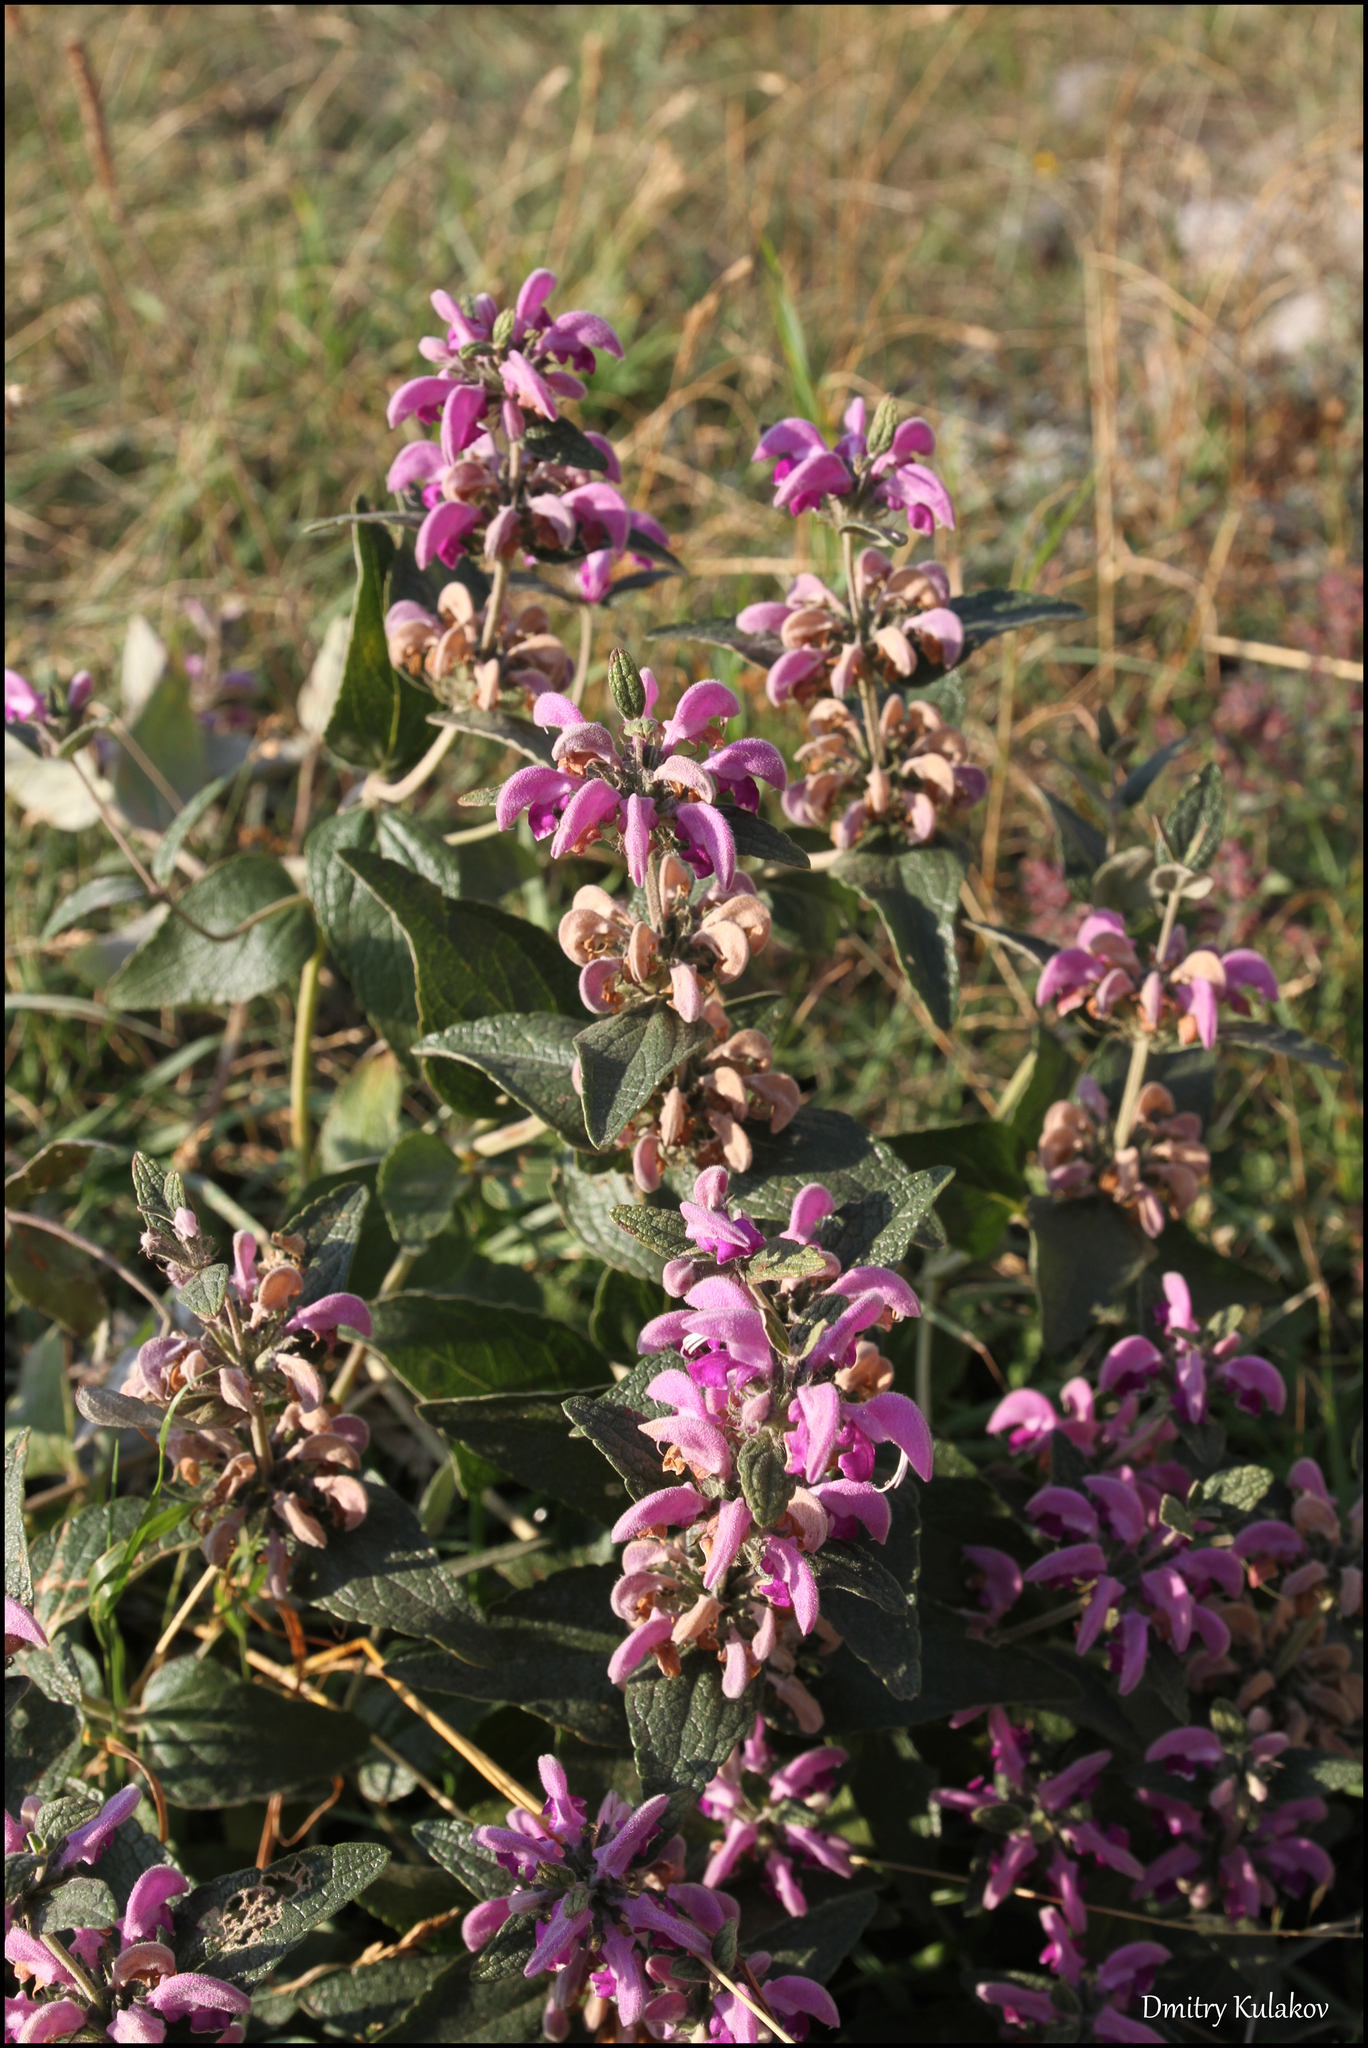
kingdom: Plantae
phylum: Tracheophyta
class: Magnoliopsida
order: Lamiales
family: Lamiaceae
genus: Phlomis
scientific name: Phlomis herba-venti
